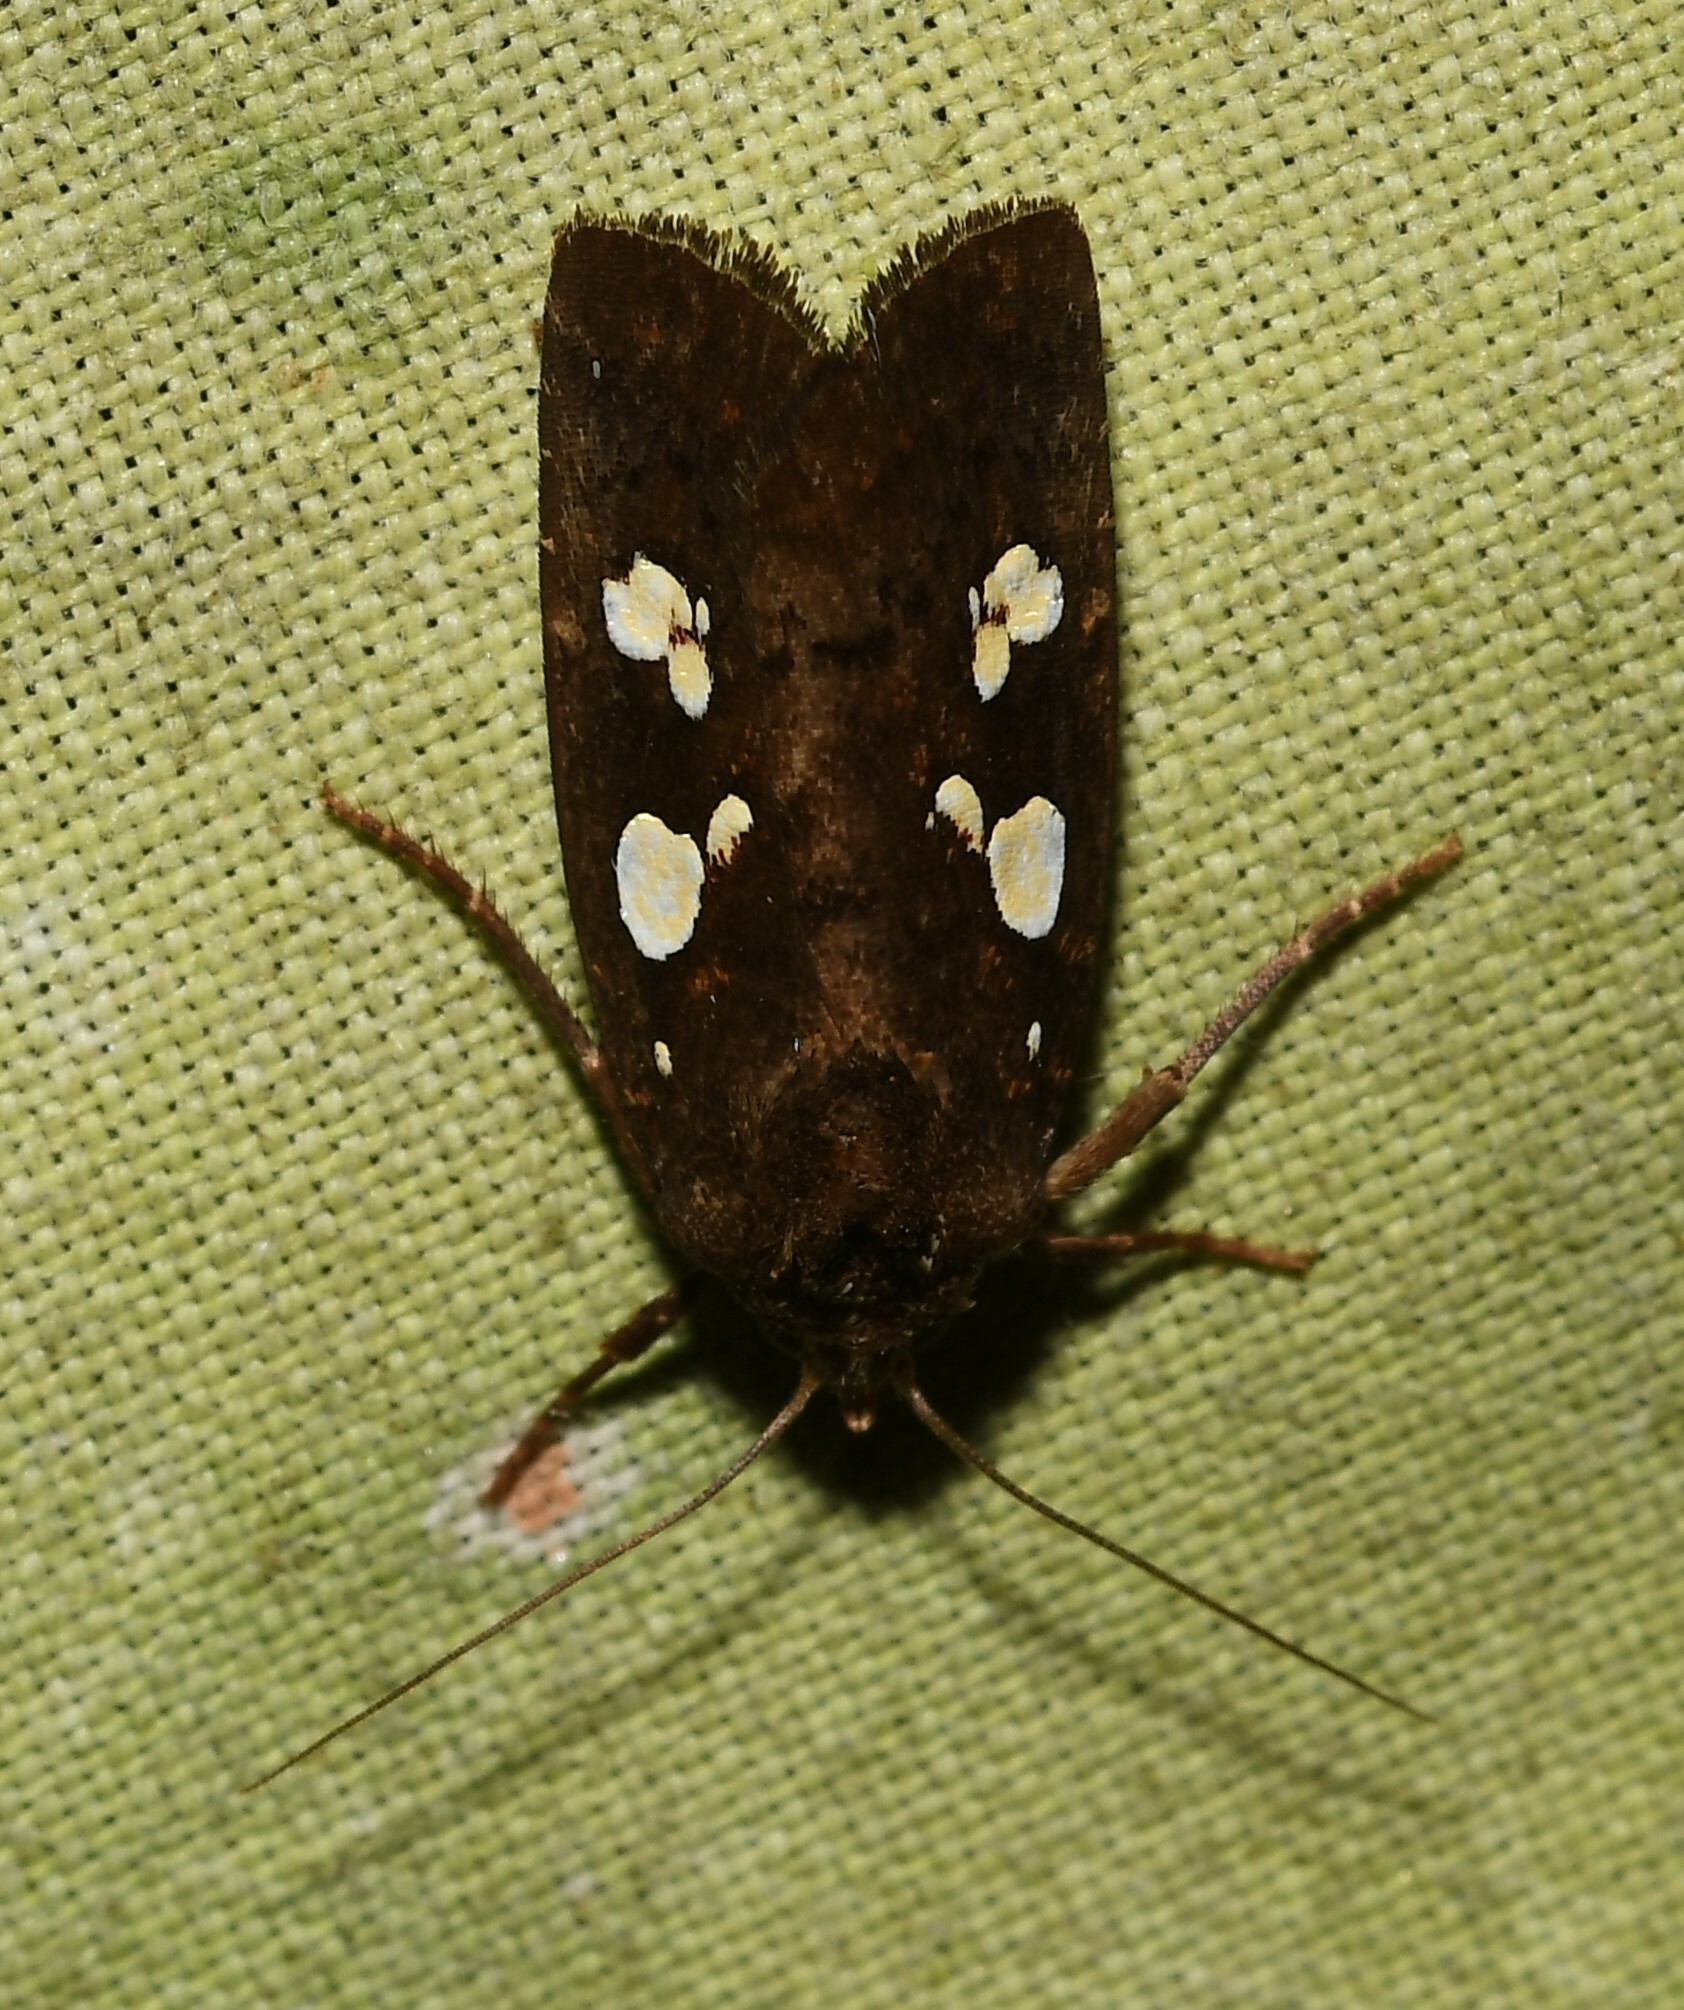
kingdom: Animalia
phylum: Arthropoda
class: Insecta
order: Lepidoptera
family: Noctuidae
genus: Calymniodes
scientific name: Calymniodes pyrostrota
